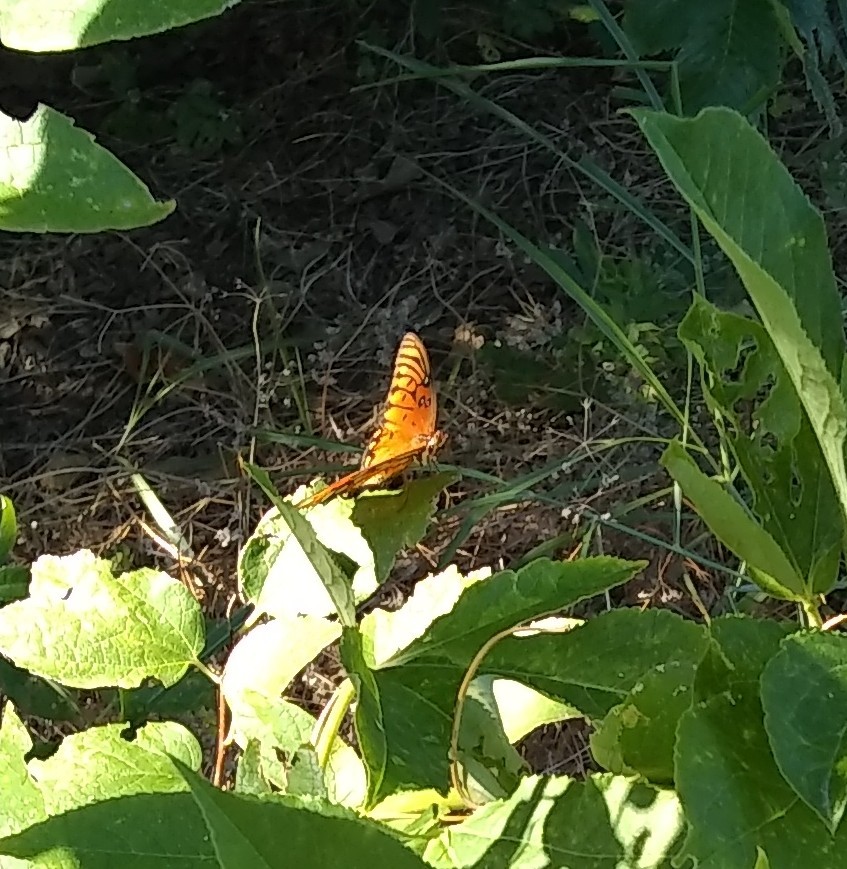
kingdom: Animalia
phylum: Arthropoda
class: Insecta
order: Lepidoptera
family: Nymphalidae
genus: Dione
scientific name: Dione vanillae
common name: Gulf fritillary
